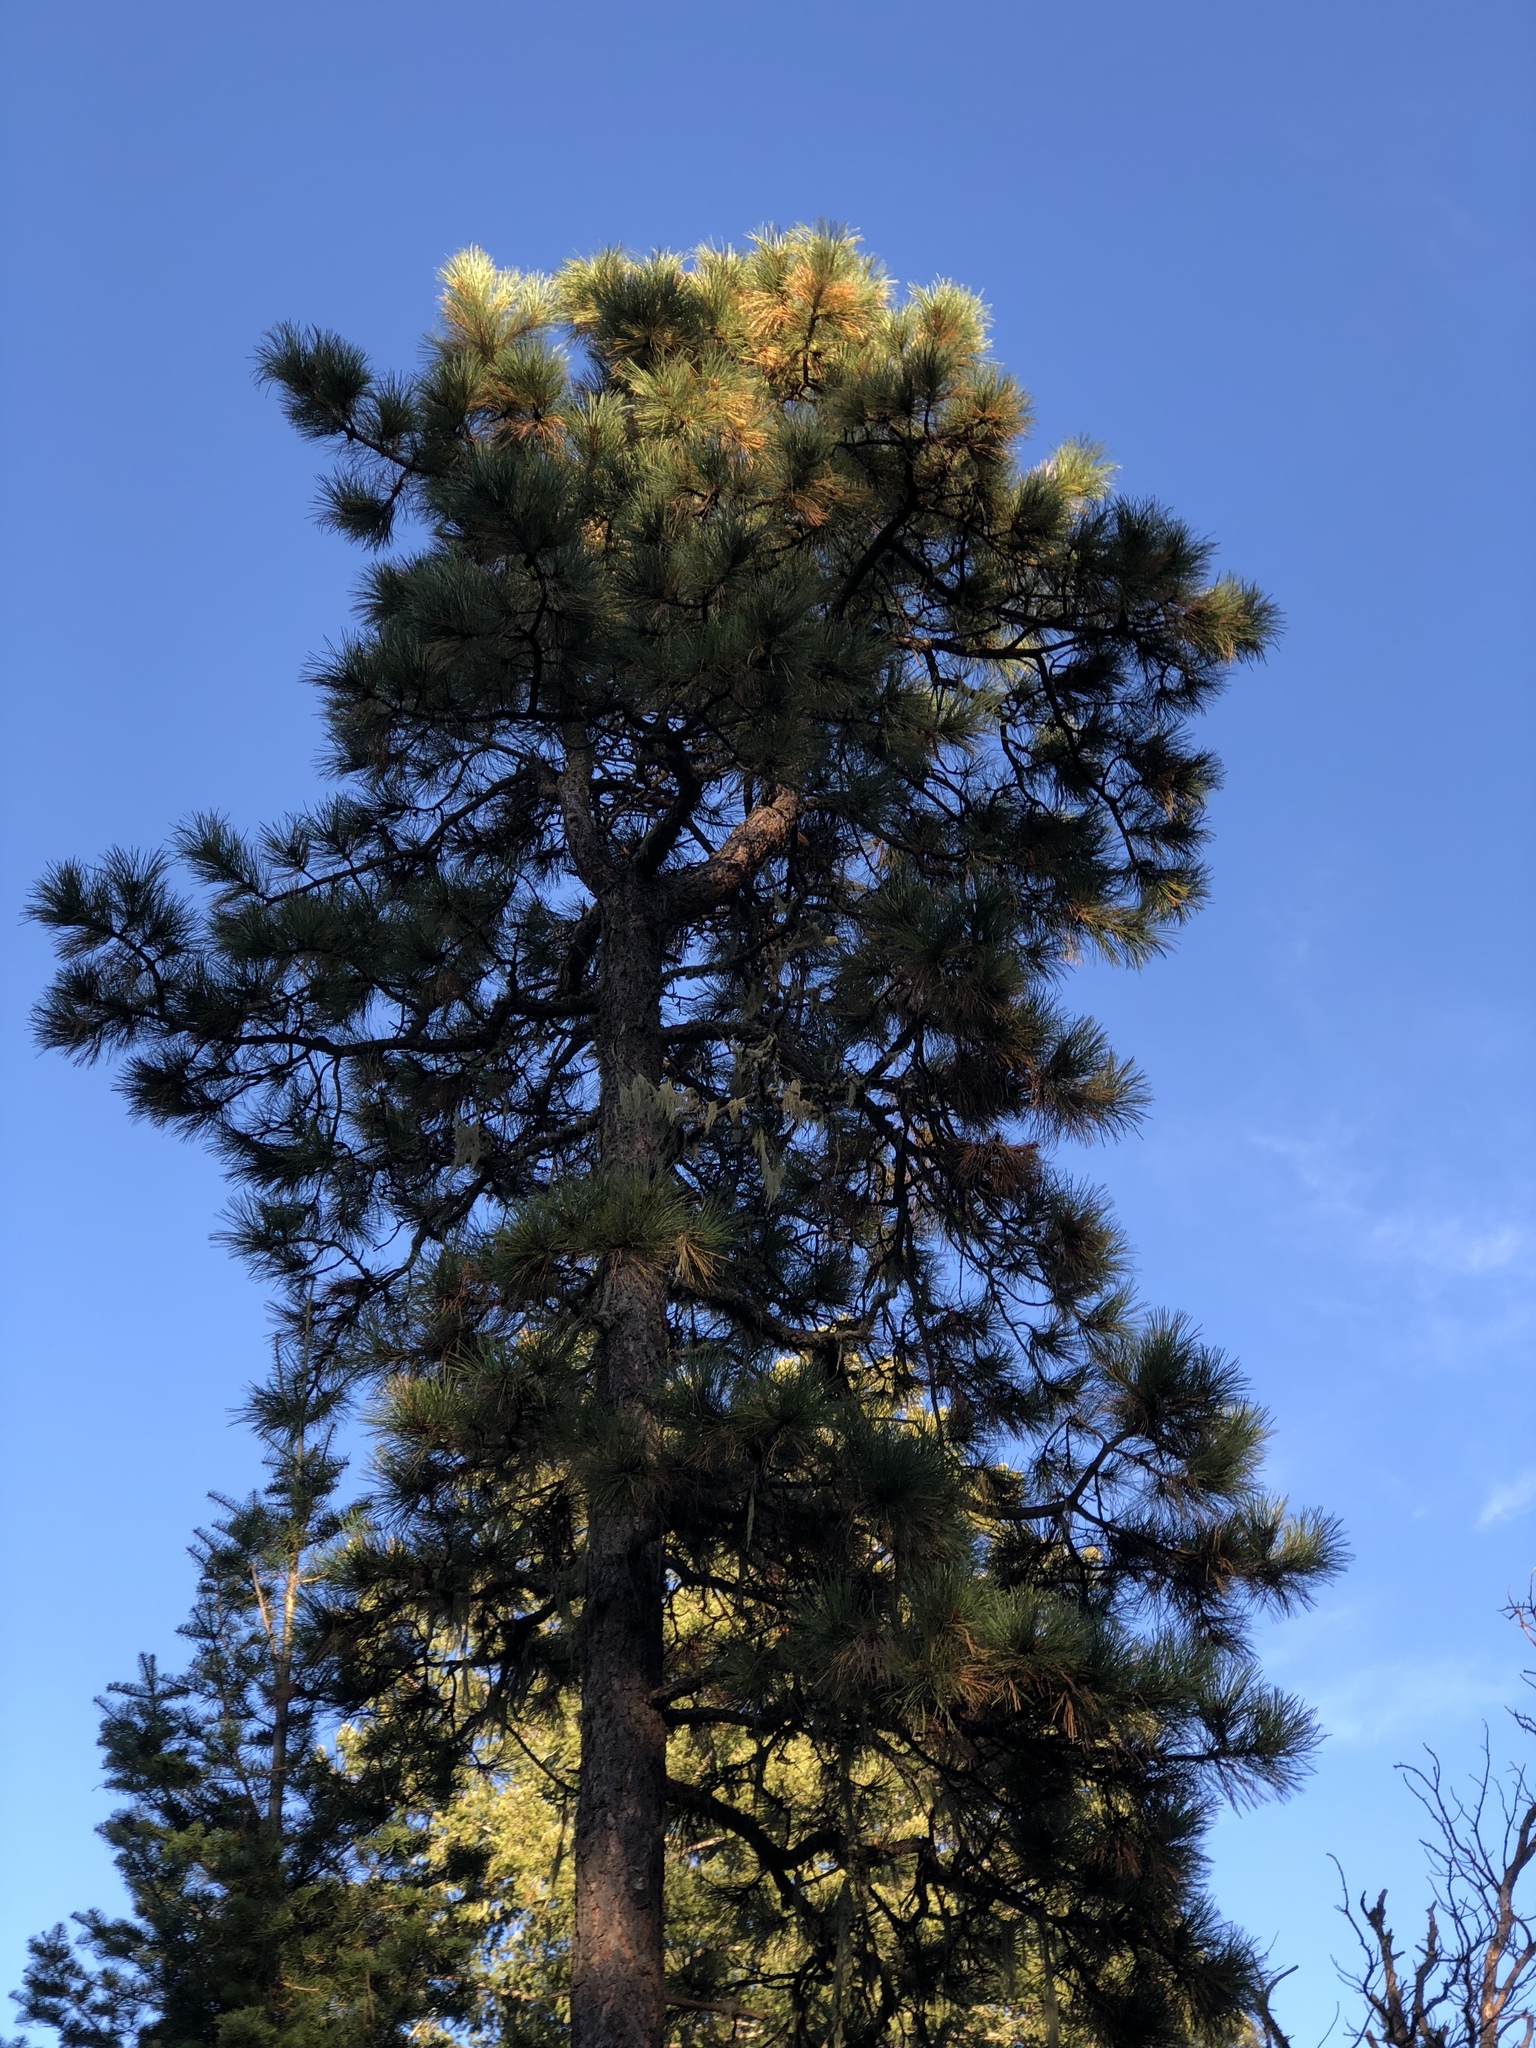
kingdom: Plantae
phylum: Tracheophyta
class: Pinopsida
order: Pinales
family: Pinaceae
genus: Pinus
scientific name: Pinus ponderosa
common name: Western yellow-pine
